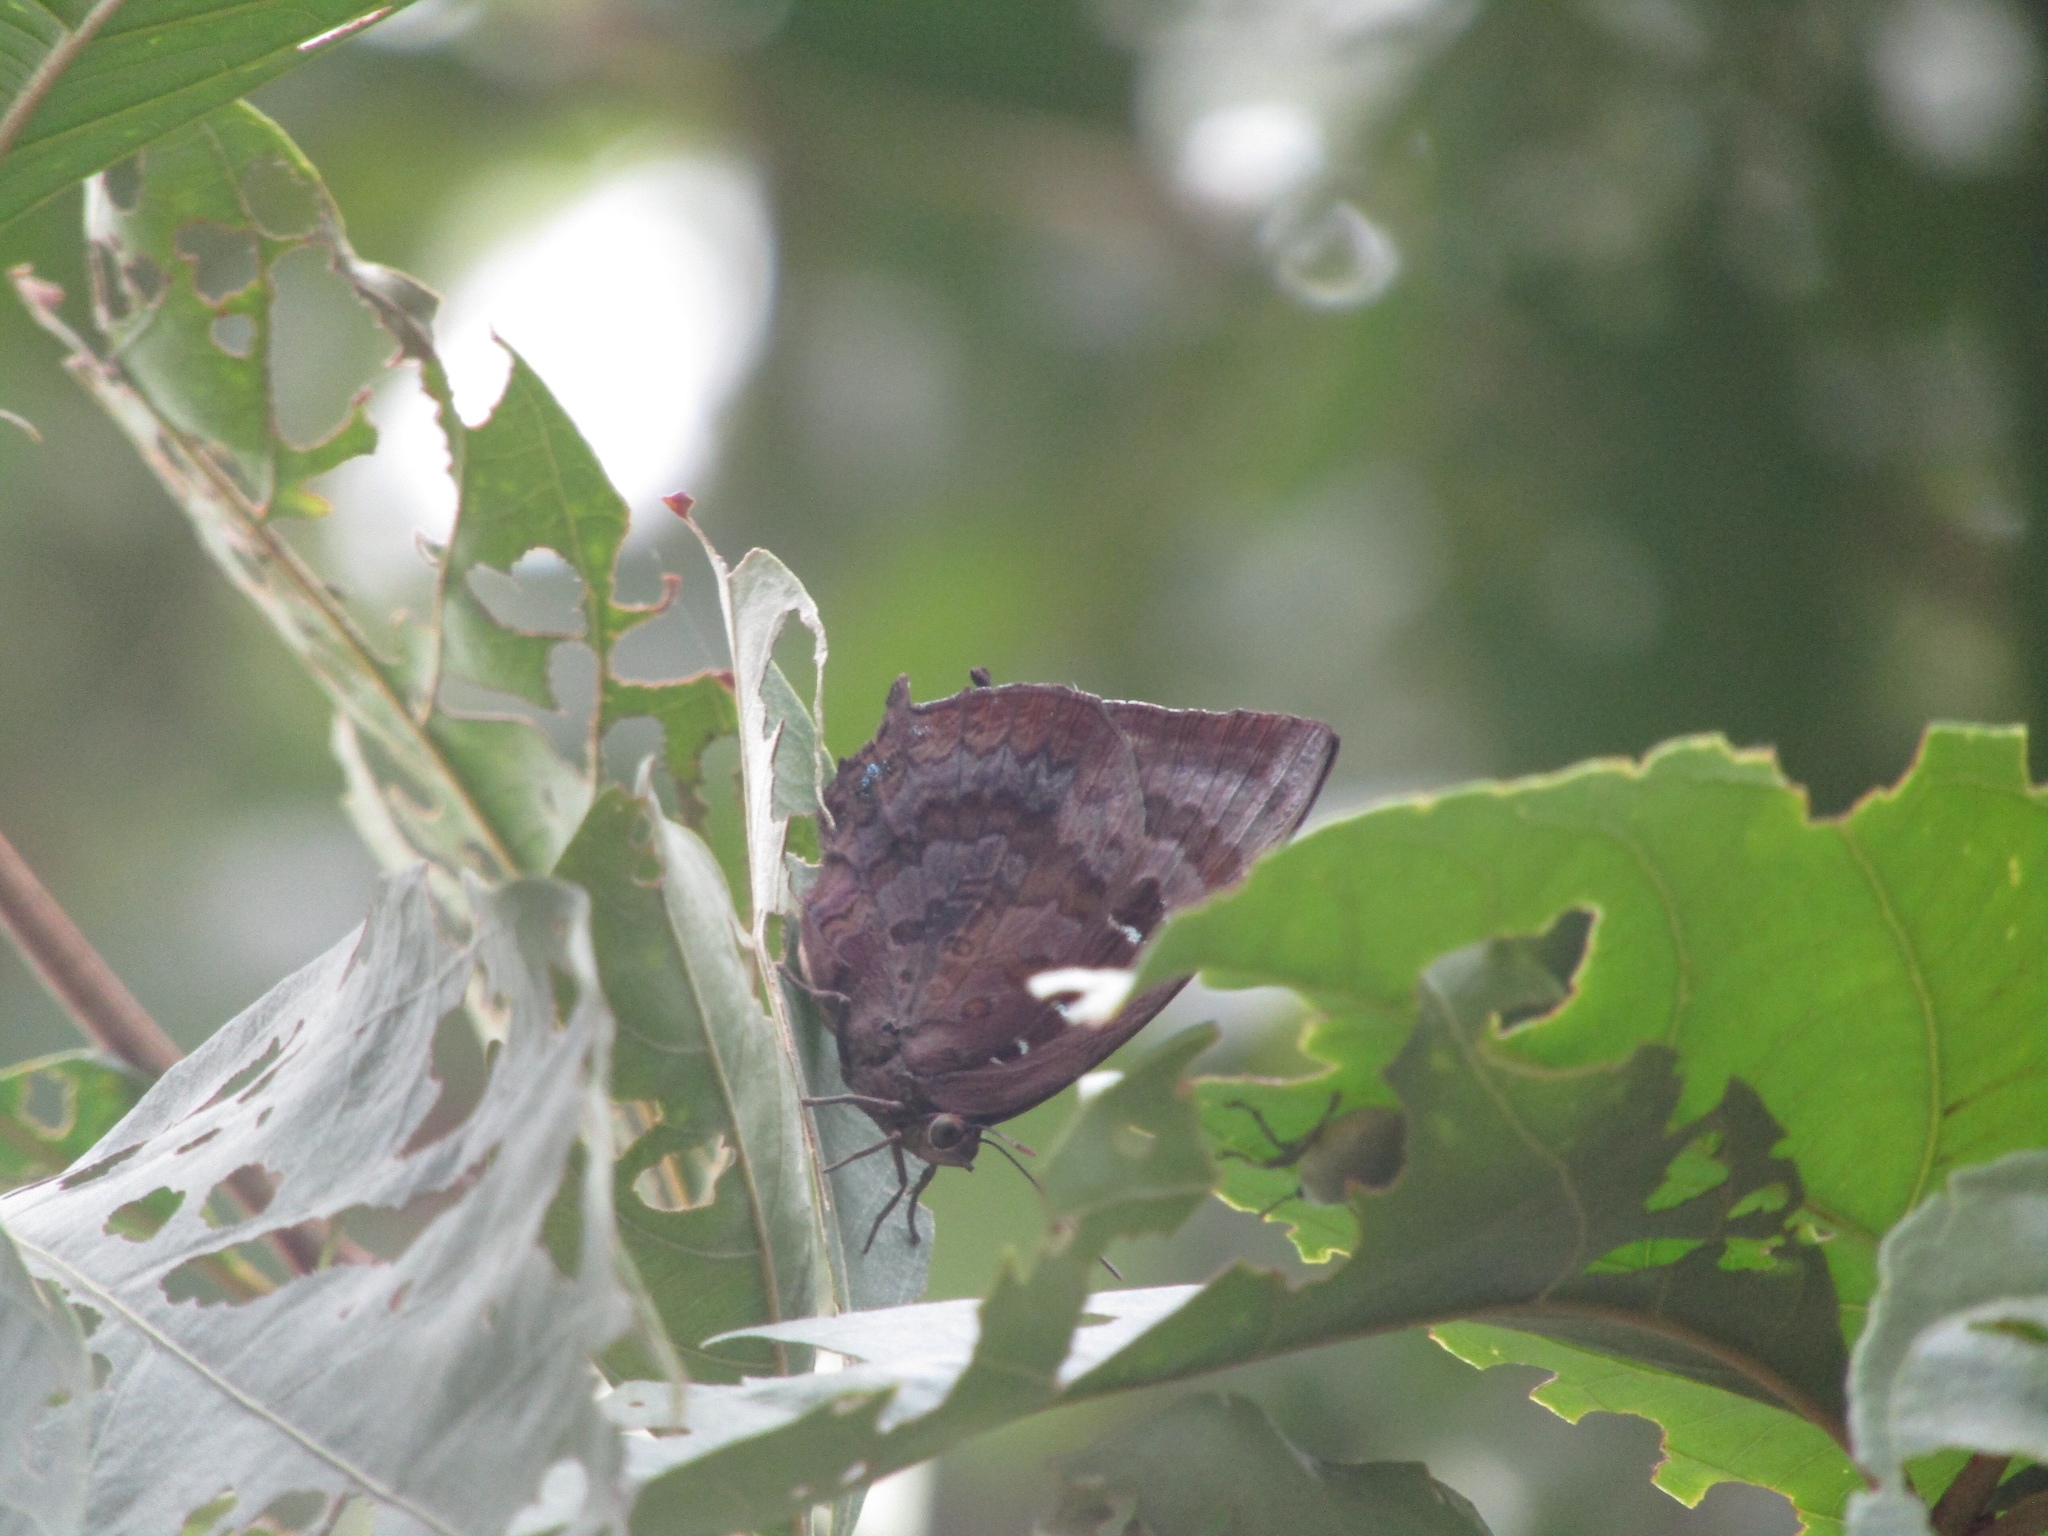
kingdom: Animalia
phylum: Arthropoda
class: Insecta
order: Lepidoptera
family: Lycaenidae
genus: Arhopala
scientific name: Arhopala centaurus
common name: Dull oak-blue
